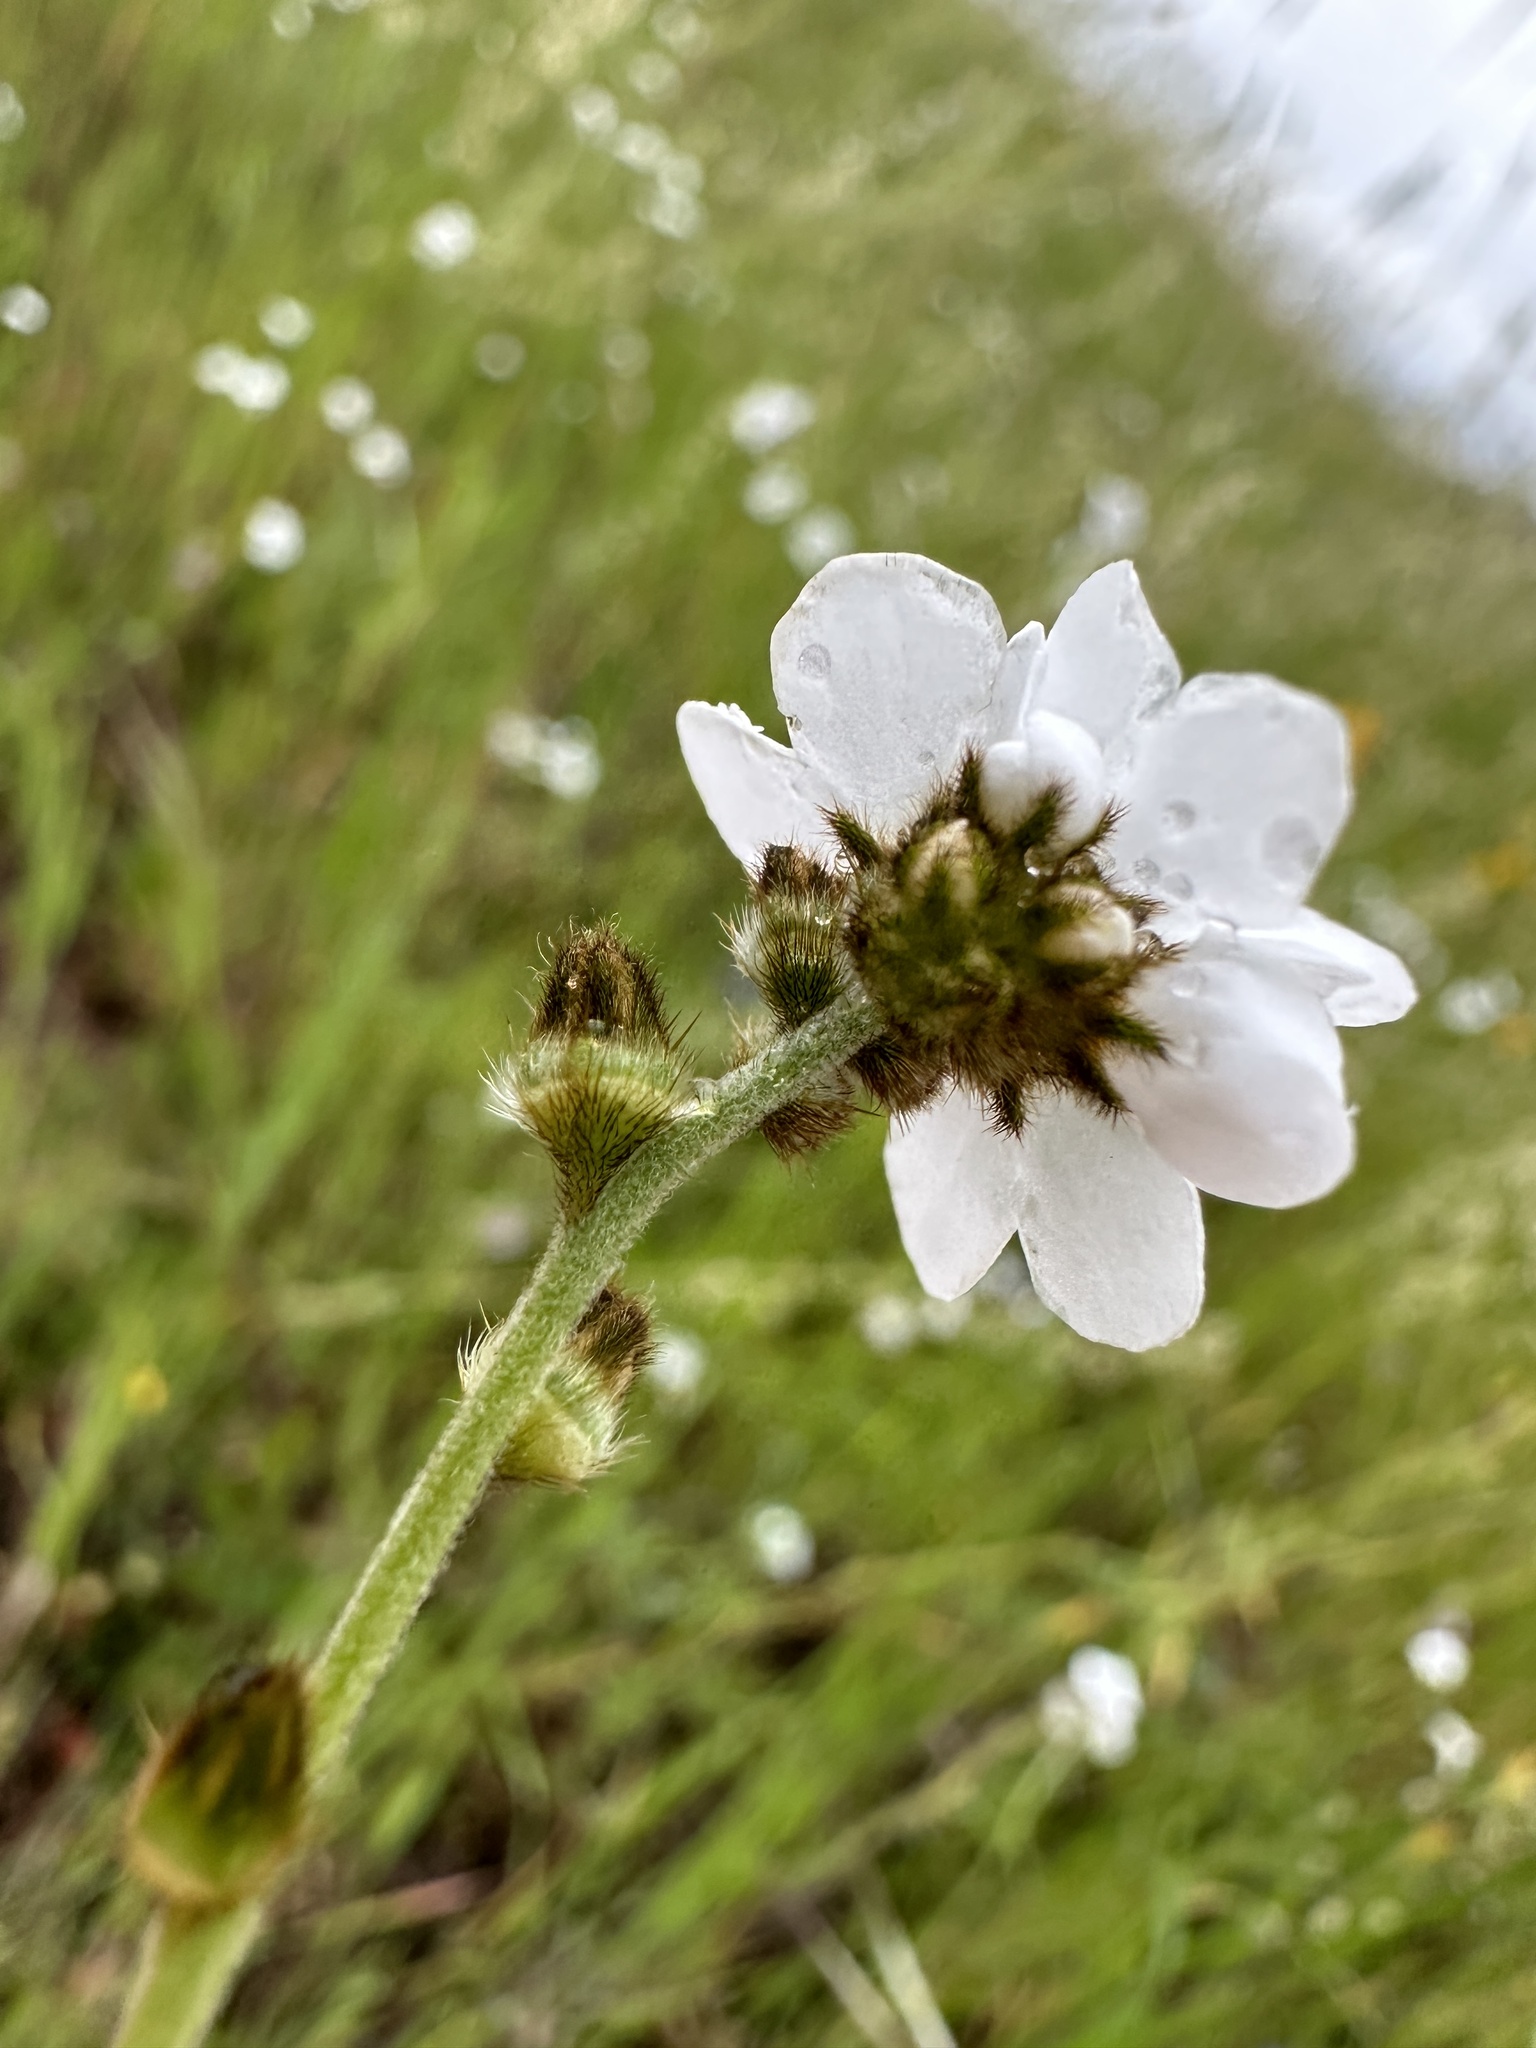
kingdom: Plantae
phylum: Tracheophyta
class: Magnoliopsida
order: Boraginales
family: Boraginaceae
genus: Plagiobothrys
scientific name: Plagiobothrys nothofulvus
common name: Popcorn-flower
